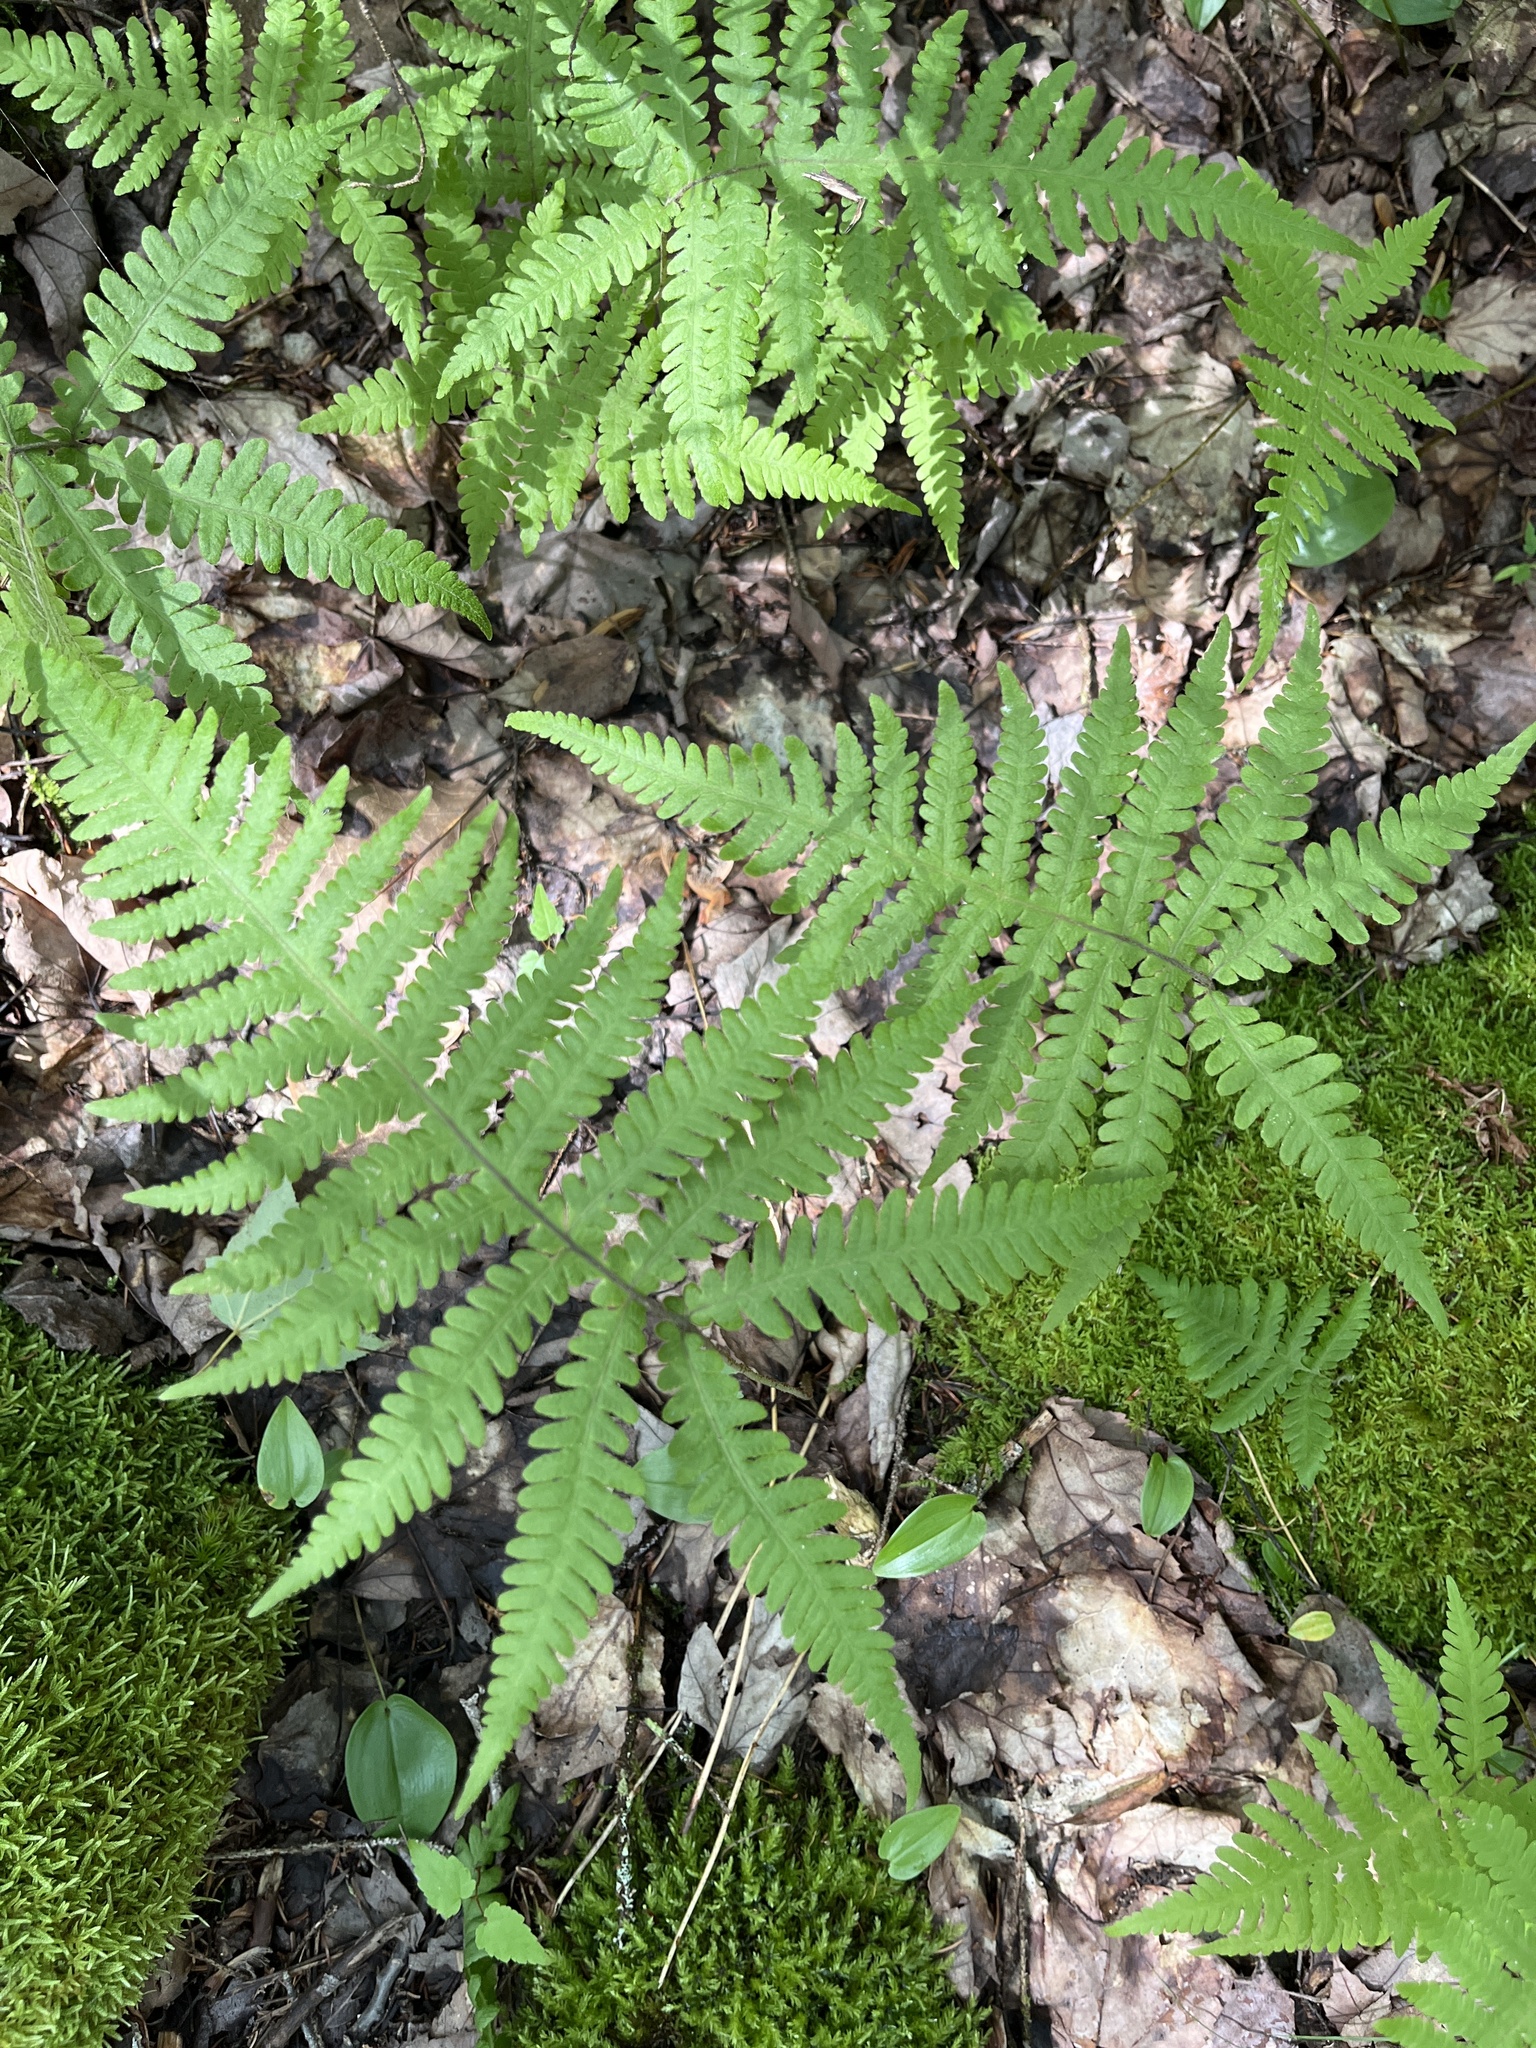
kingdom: Plantae
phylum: Tracheophyta
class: Polypodiopsida
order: Polypodiales
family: Thelypteridaceae
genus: Phegopteris
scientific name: Phegopteris connectilis
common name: Beech fern
